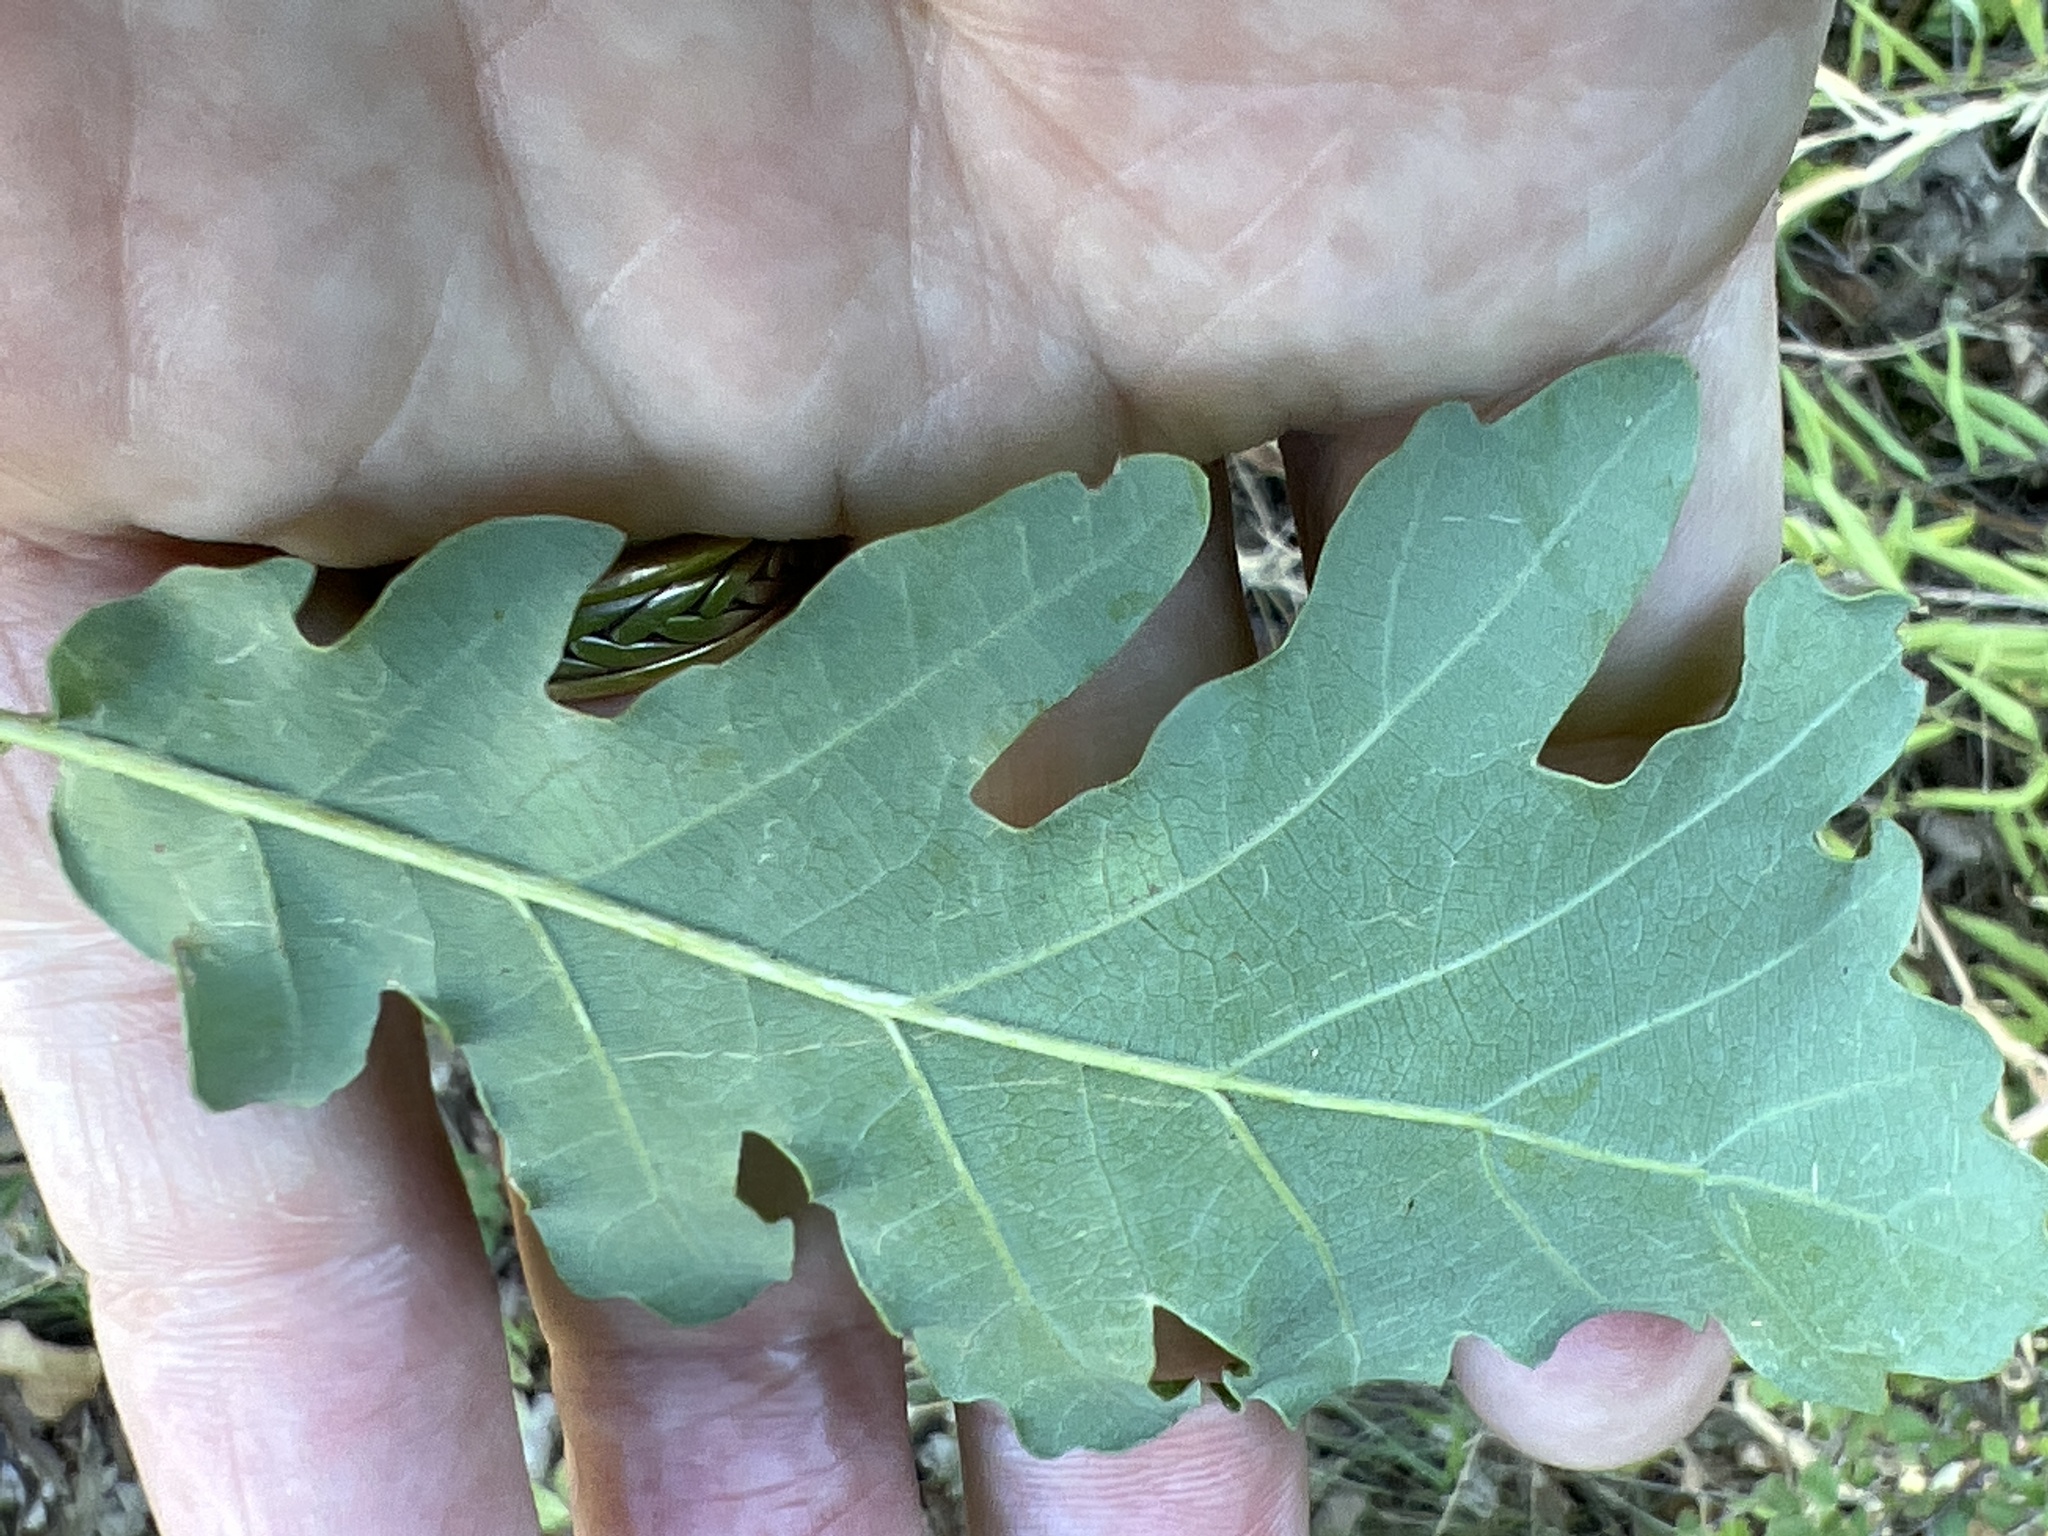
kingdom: Plantae
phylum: Tracheophyta
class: Magnoliopsida
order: Fagales
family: Fagaceae
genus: Quercus
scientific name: Quercus cerris
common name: Turkey oak
